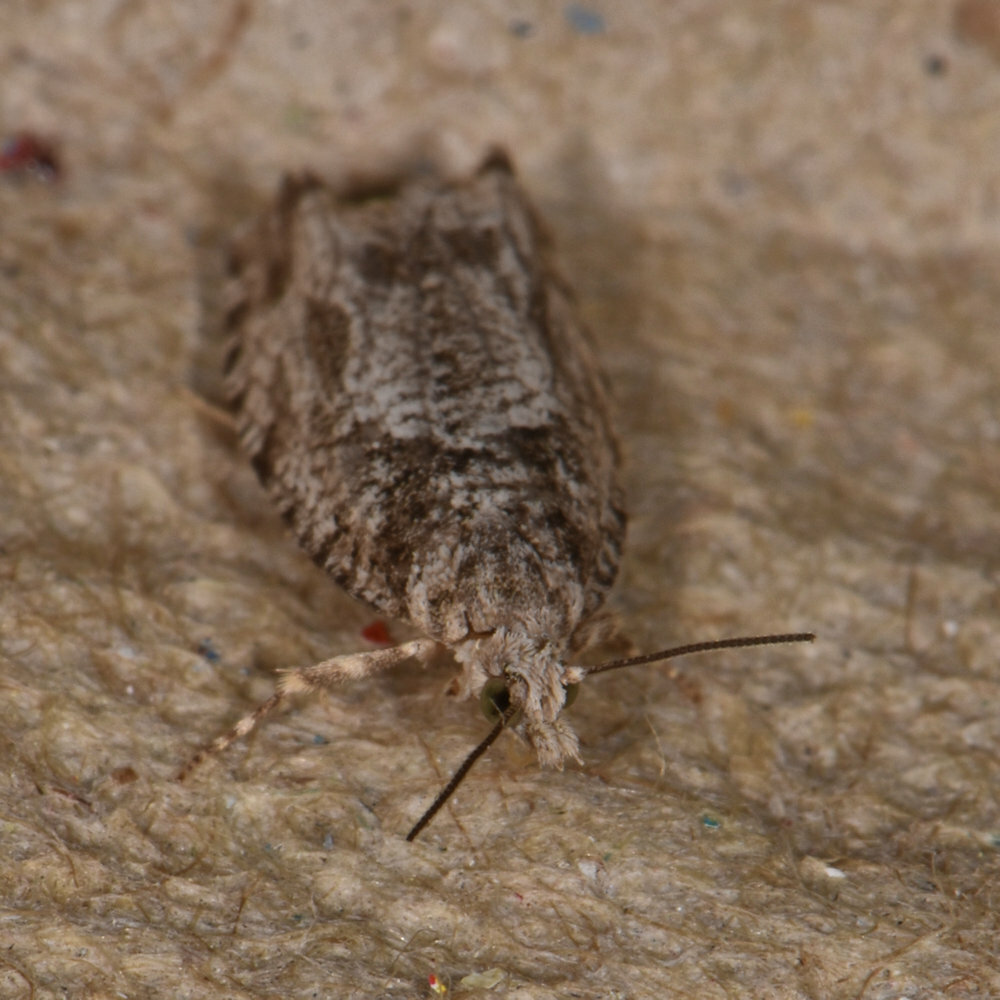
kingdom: Animalia
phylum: Arthropoda
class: Insecta
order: Lepidoptera
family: Tortricidae
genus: Catastega
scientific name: Catastega aceriella
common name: Maple trumpet skeletonizer moth
